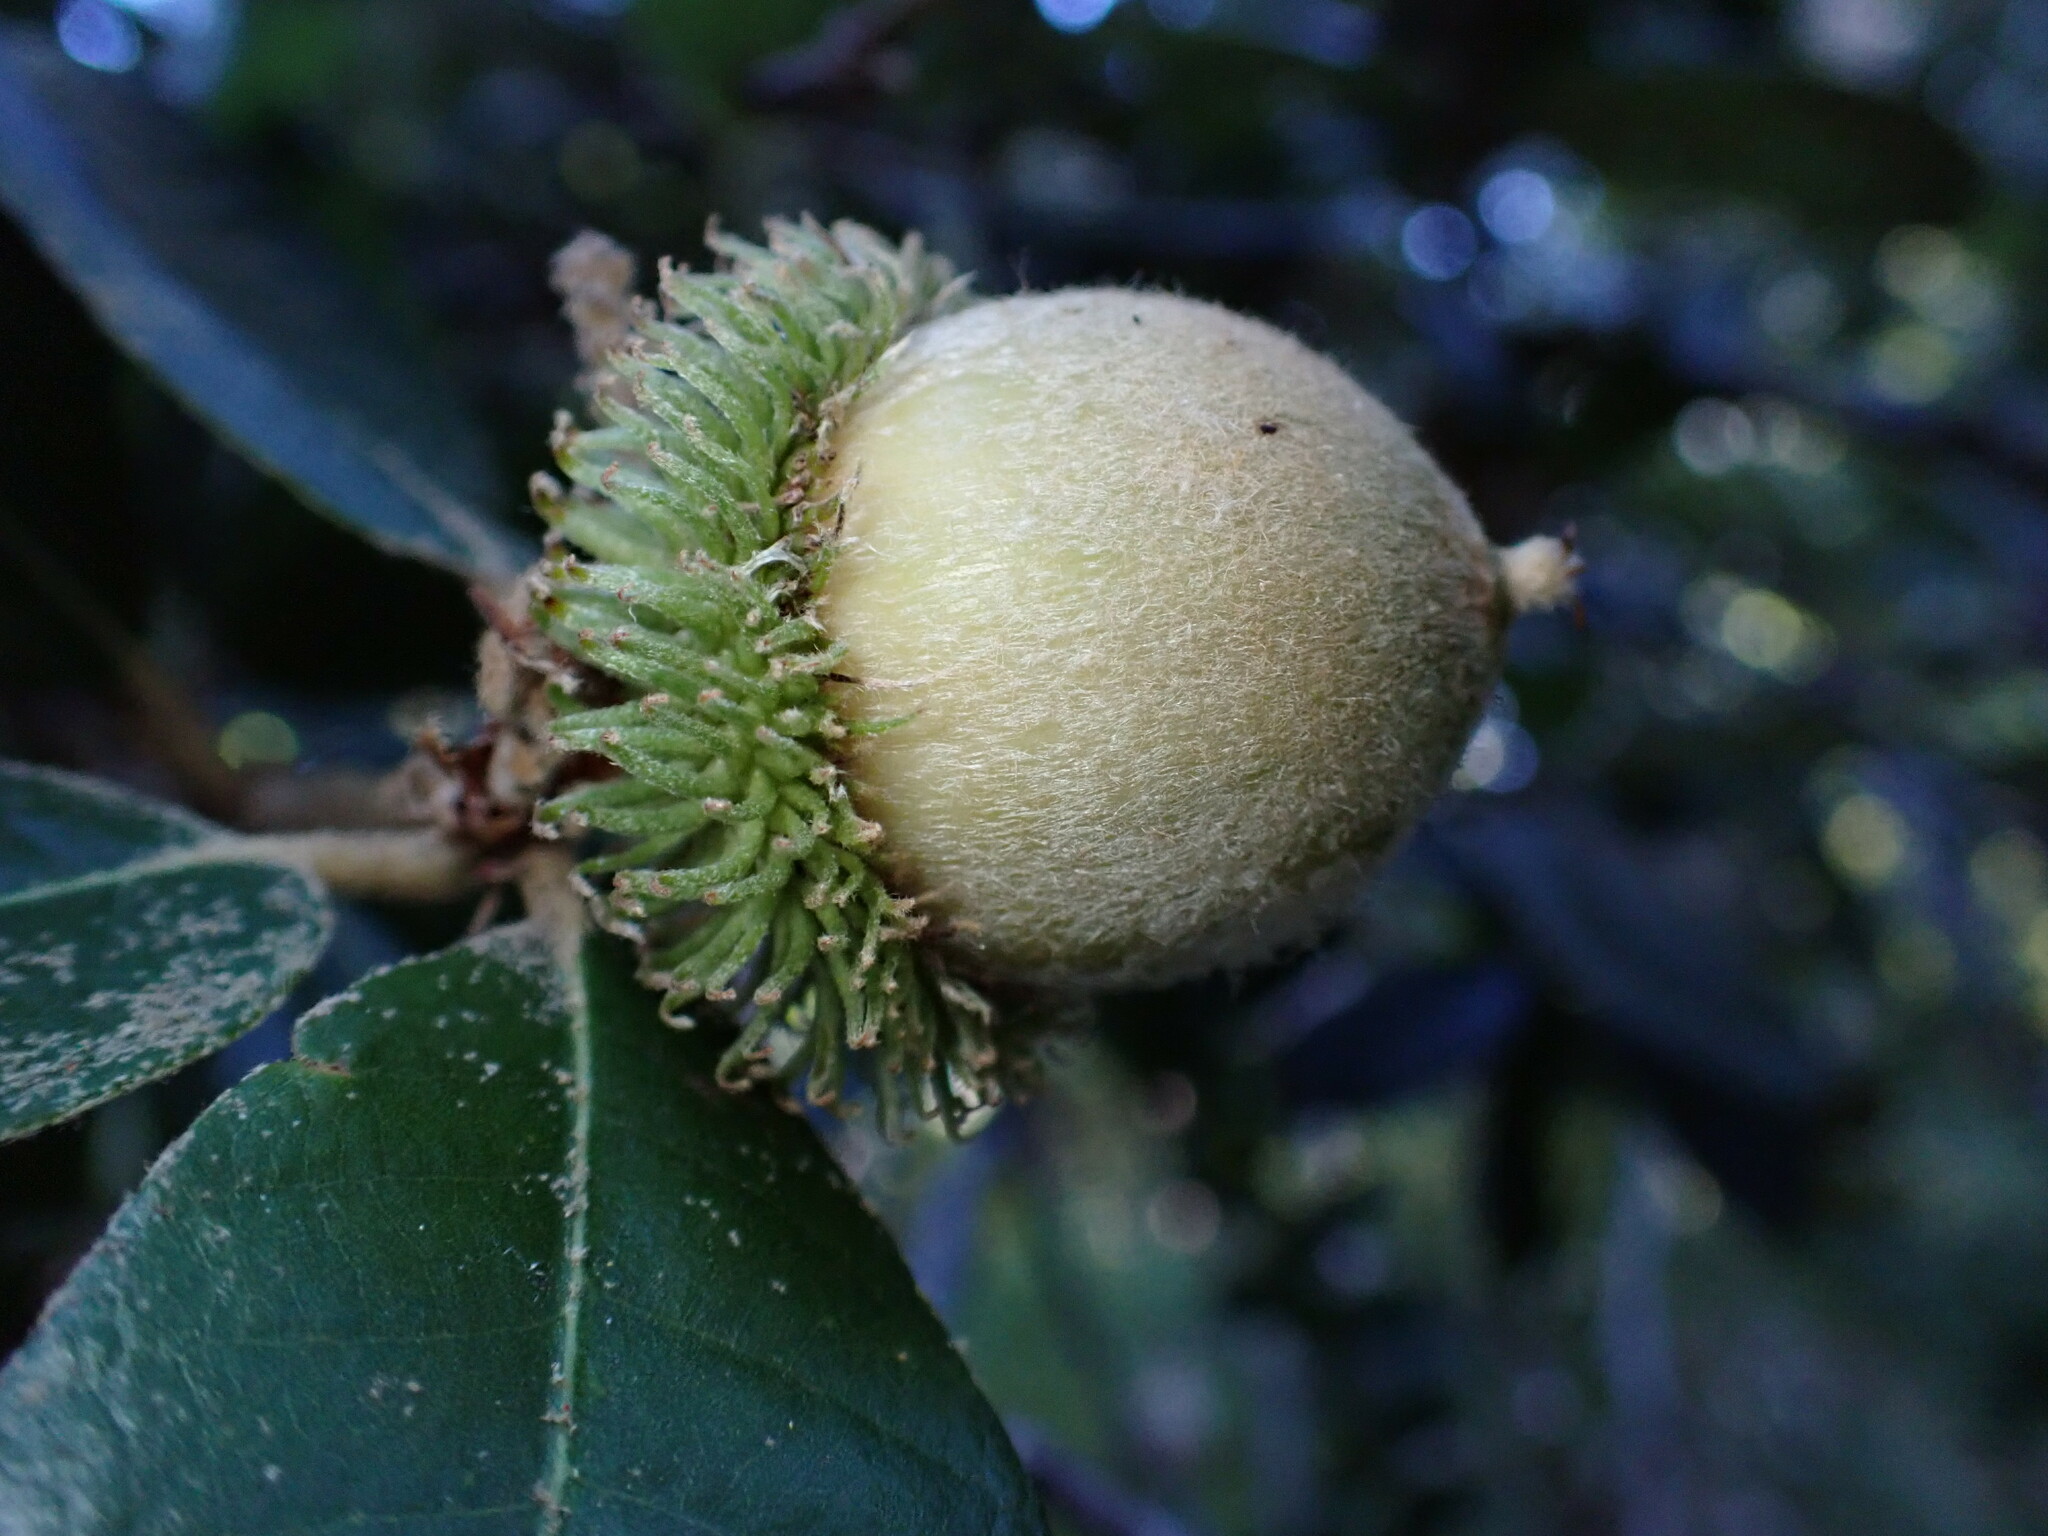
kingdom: Plantae
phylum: Tracheophyta
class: Magnoliopsida
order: Fagales
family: Fagaceae
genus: Notholithocarpus
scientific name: Notholithocarpus densiflorus
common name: Tan bark oak
